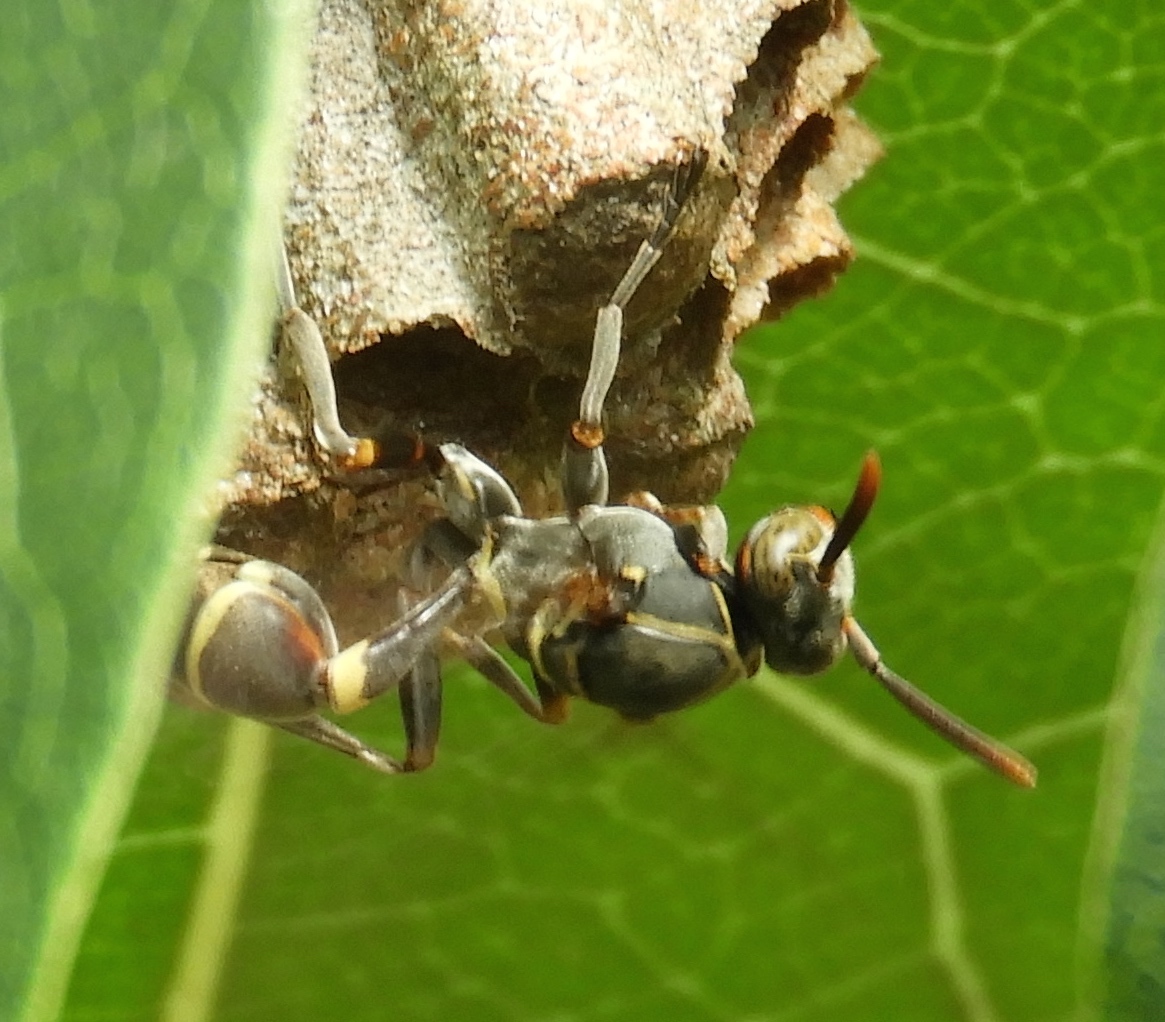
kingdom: Animalia
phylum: Arthropoda
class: Insecta
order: Hymenoptera
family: Vespidae
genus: Mischocyttarus
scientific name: Mischocyttarus
